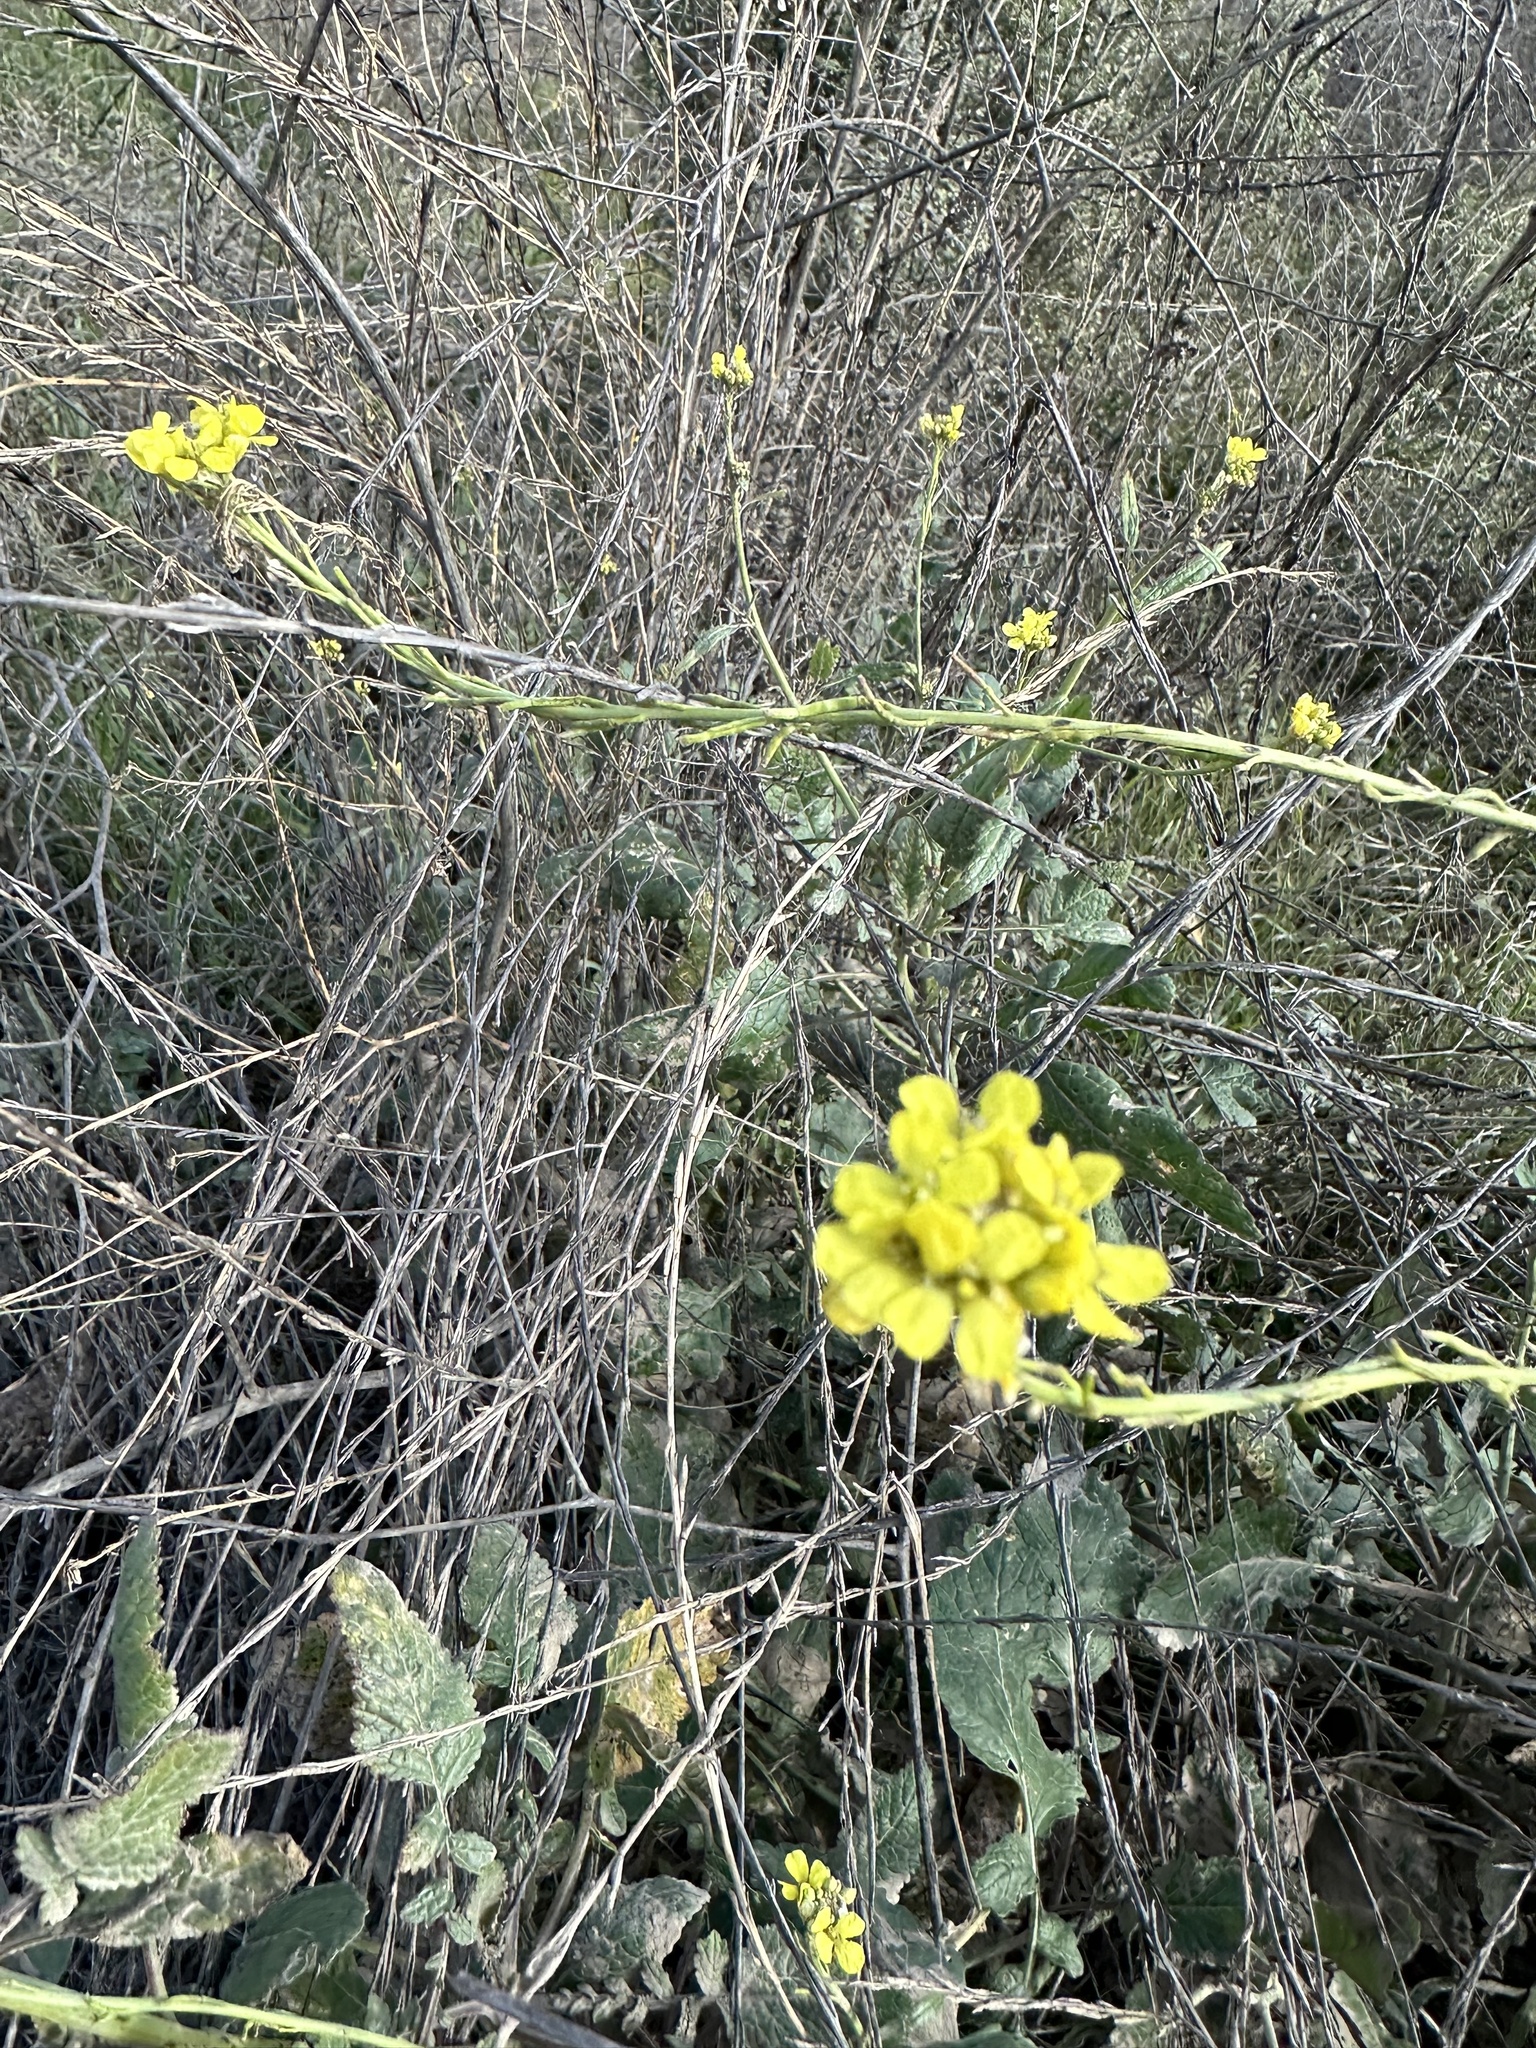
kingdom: Plantae
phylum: Tracheophyta
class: Magnoliopsida
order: Brassicales
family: Brassicaceae
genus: Brassica
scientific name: Brassica nigra
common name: Black mustard
